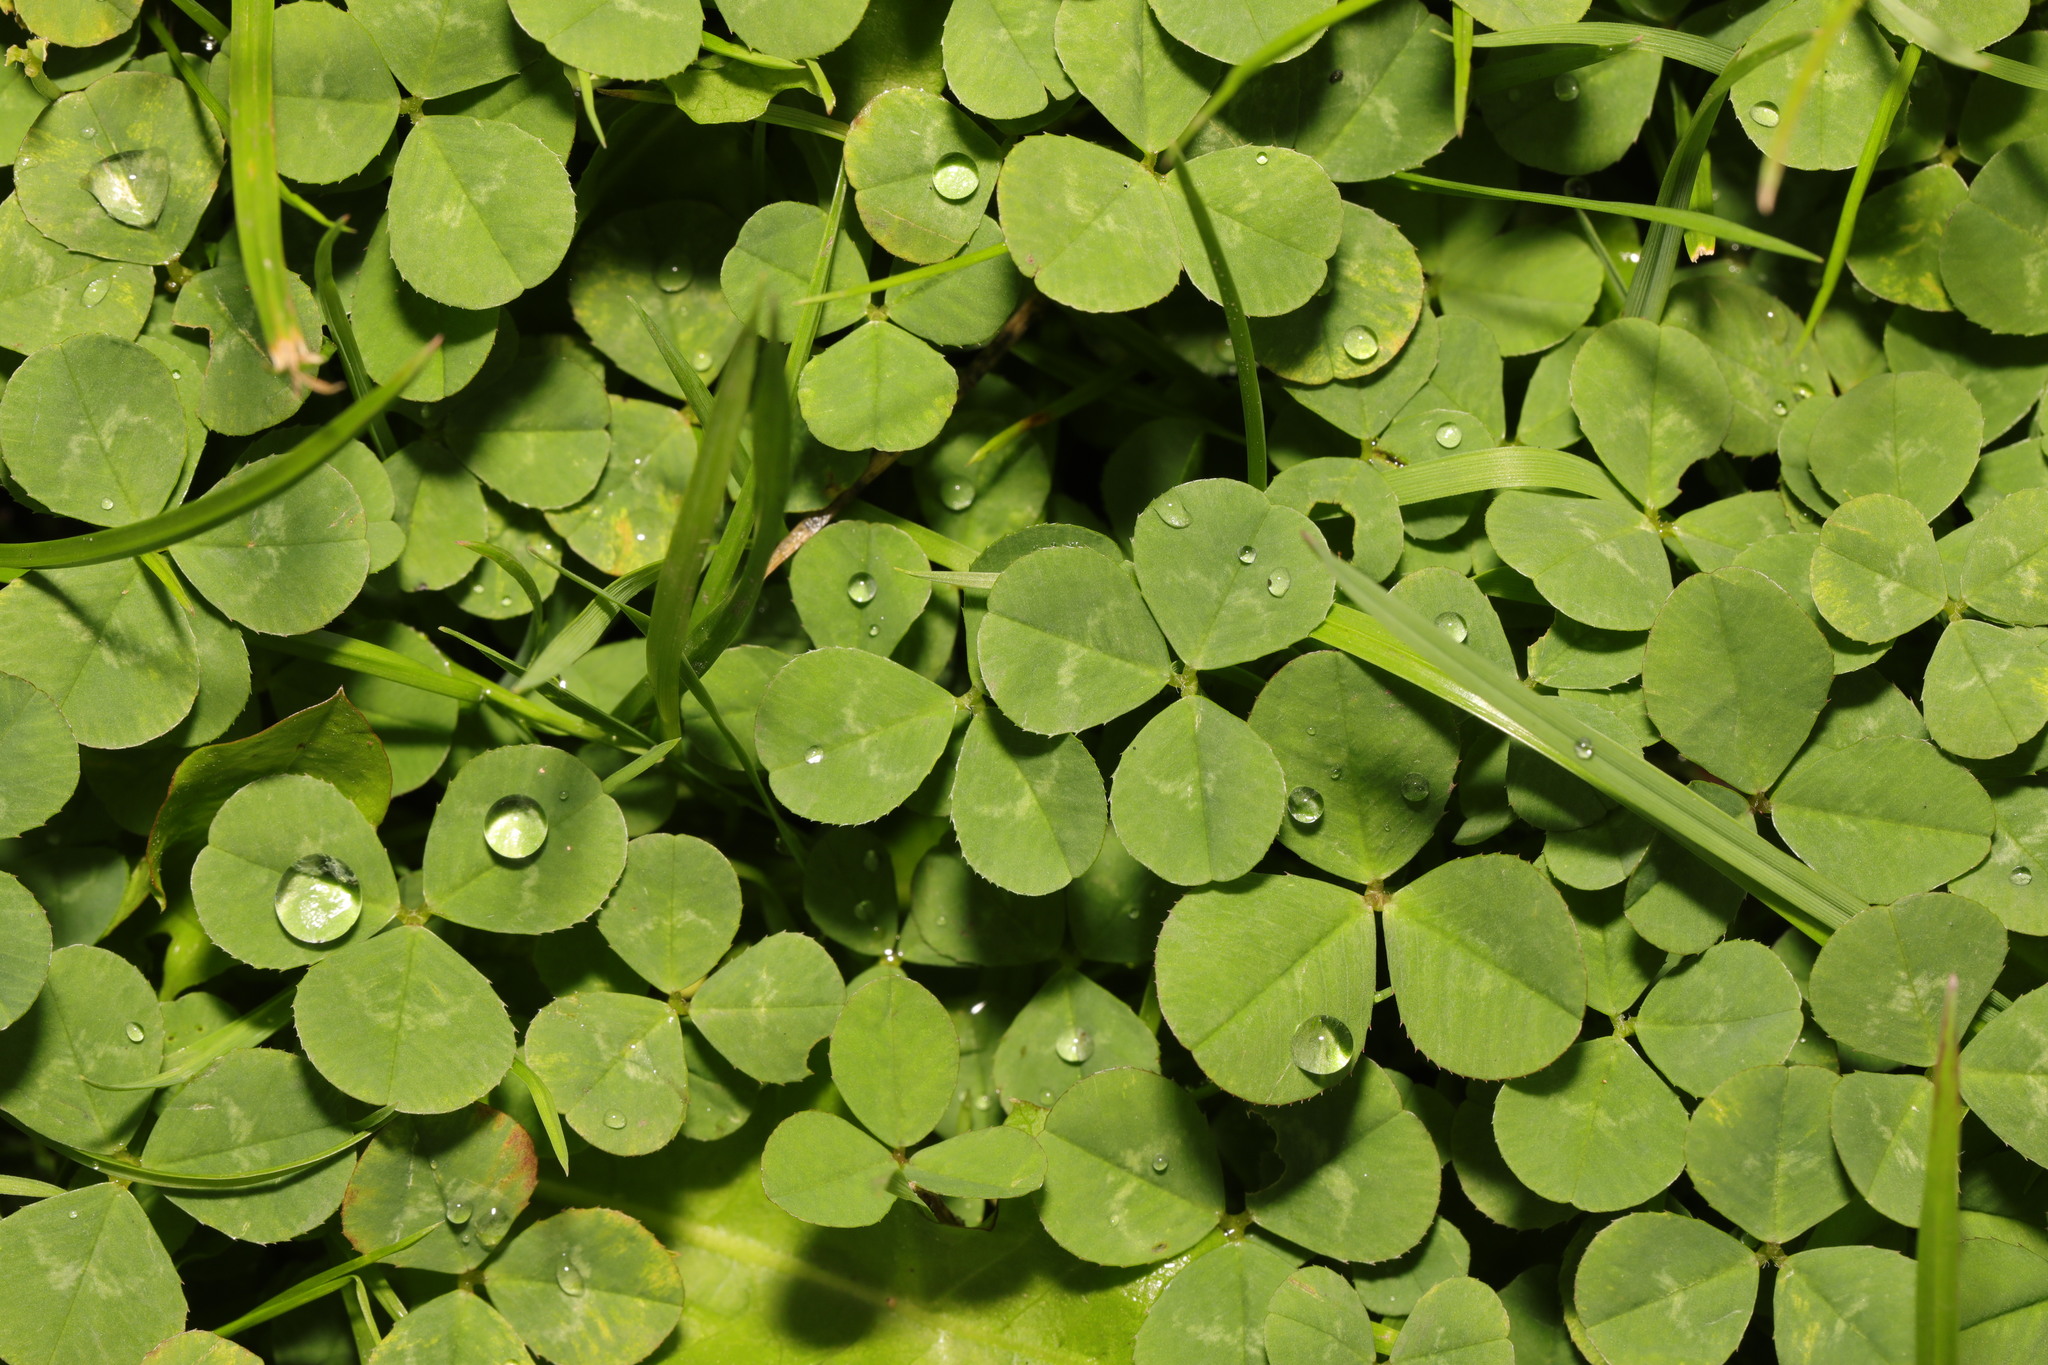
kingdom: Plantae
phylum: Tracheophyta
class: Magnoliopsida
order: Fabales
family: Fabaceae
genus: Trifolium
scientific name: Trifolium repens
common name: White clover
